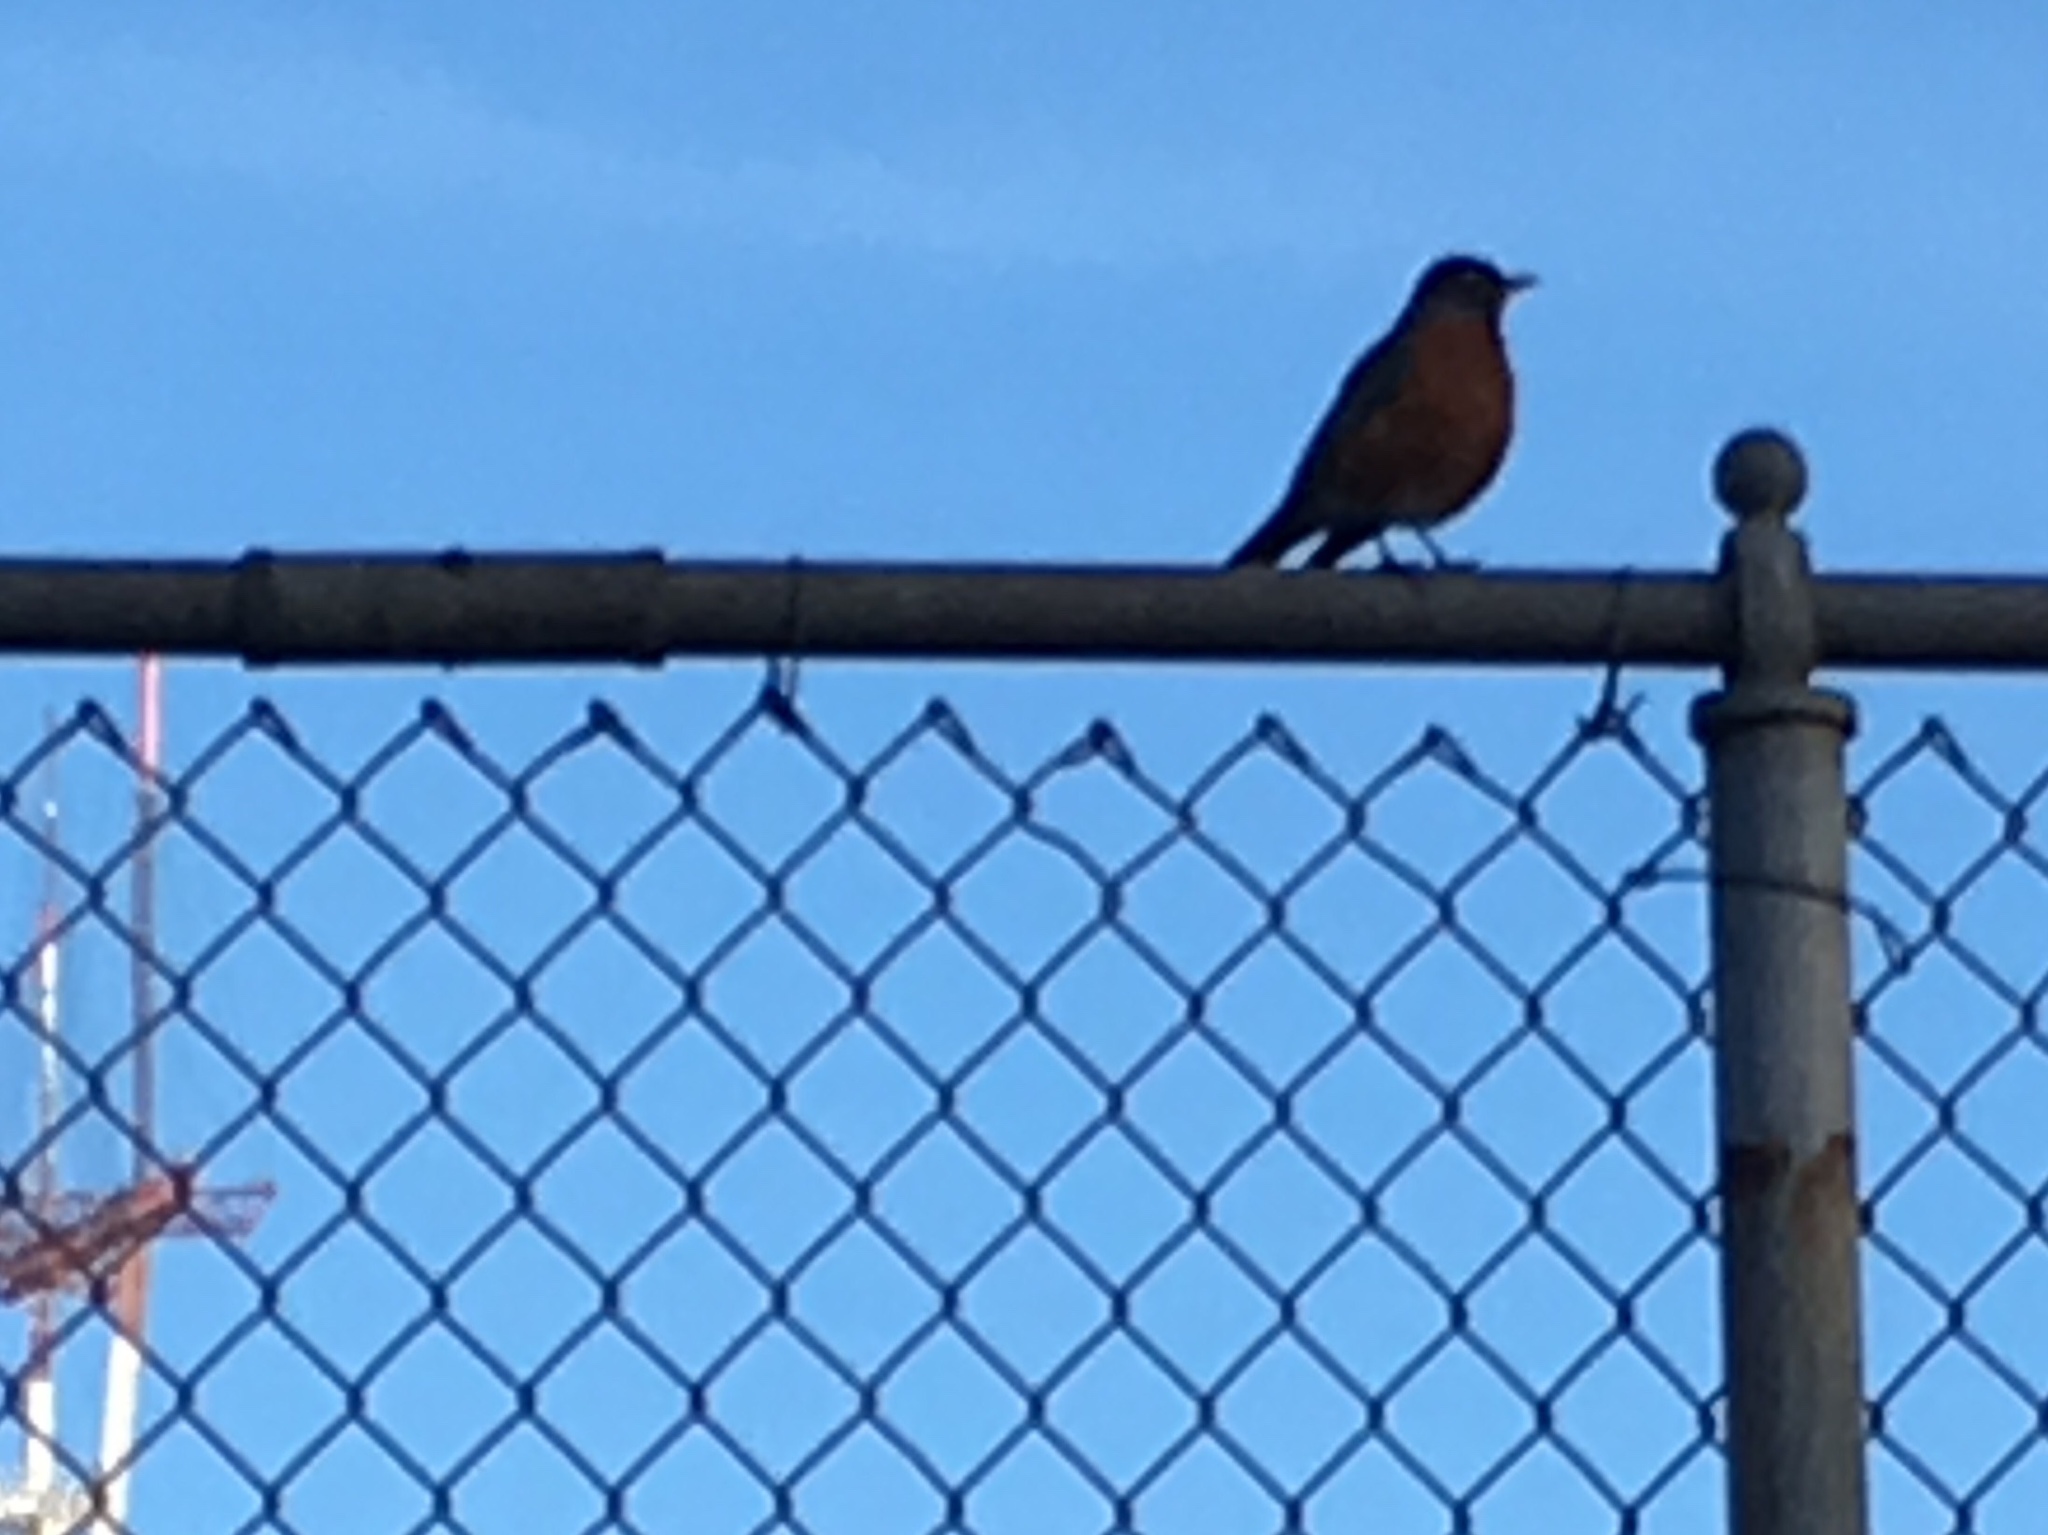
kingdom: Animalia
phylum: Chordata
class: Aves
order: Passeriformes
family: Turdidae
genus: Turdus
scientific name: Turdus migratorius
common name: American robin
